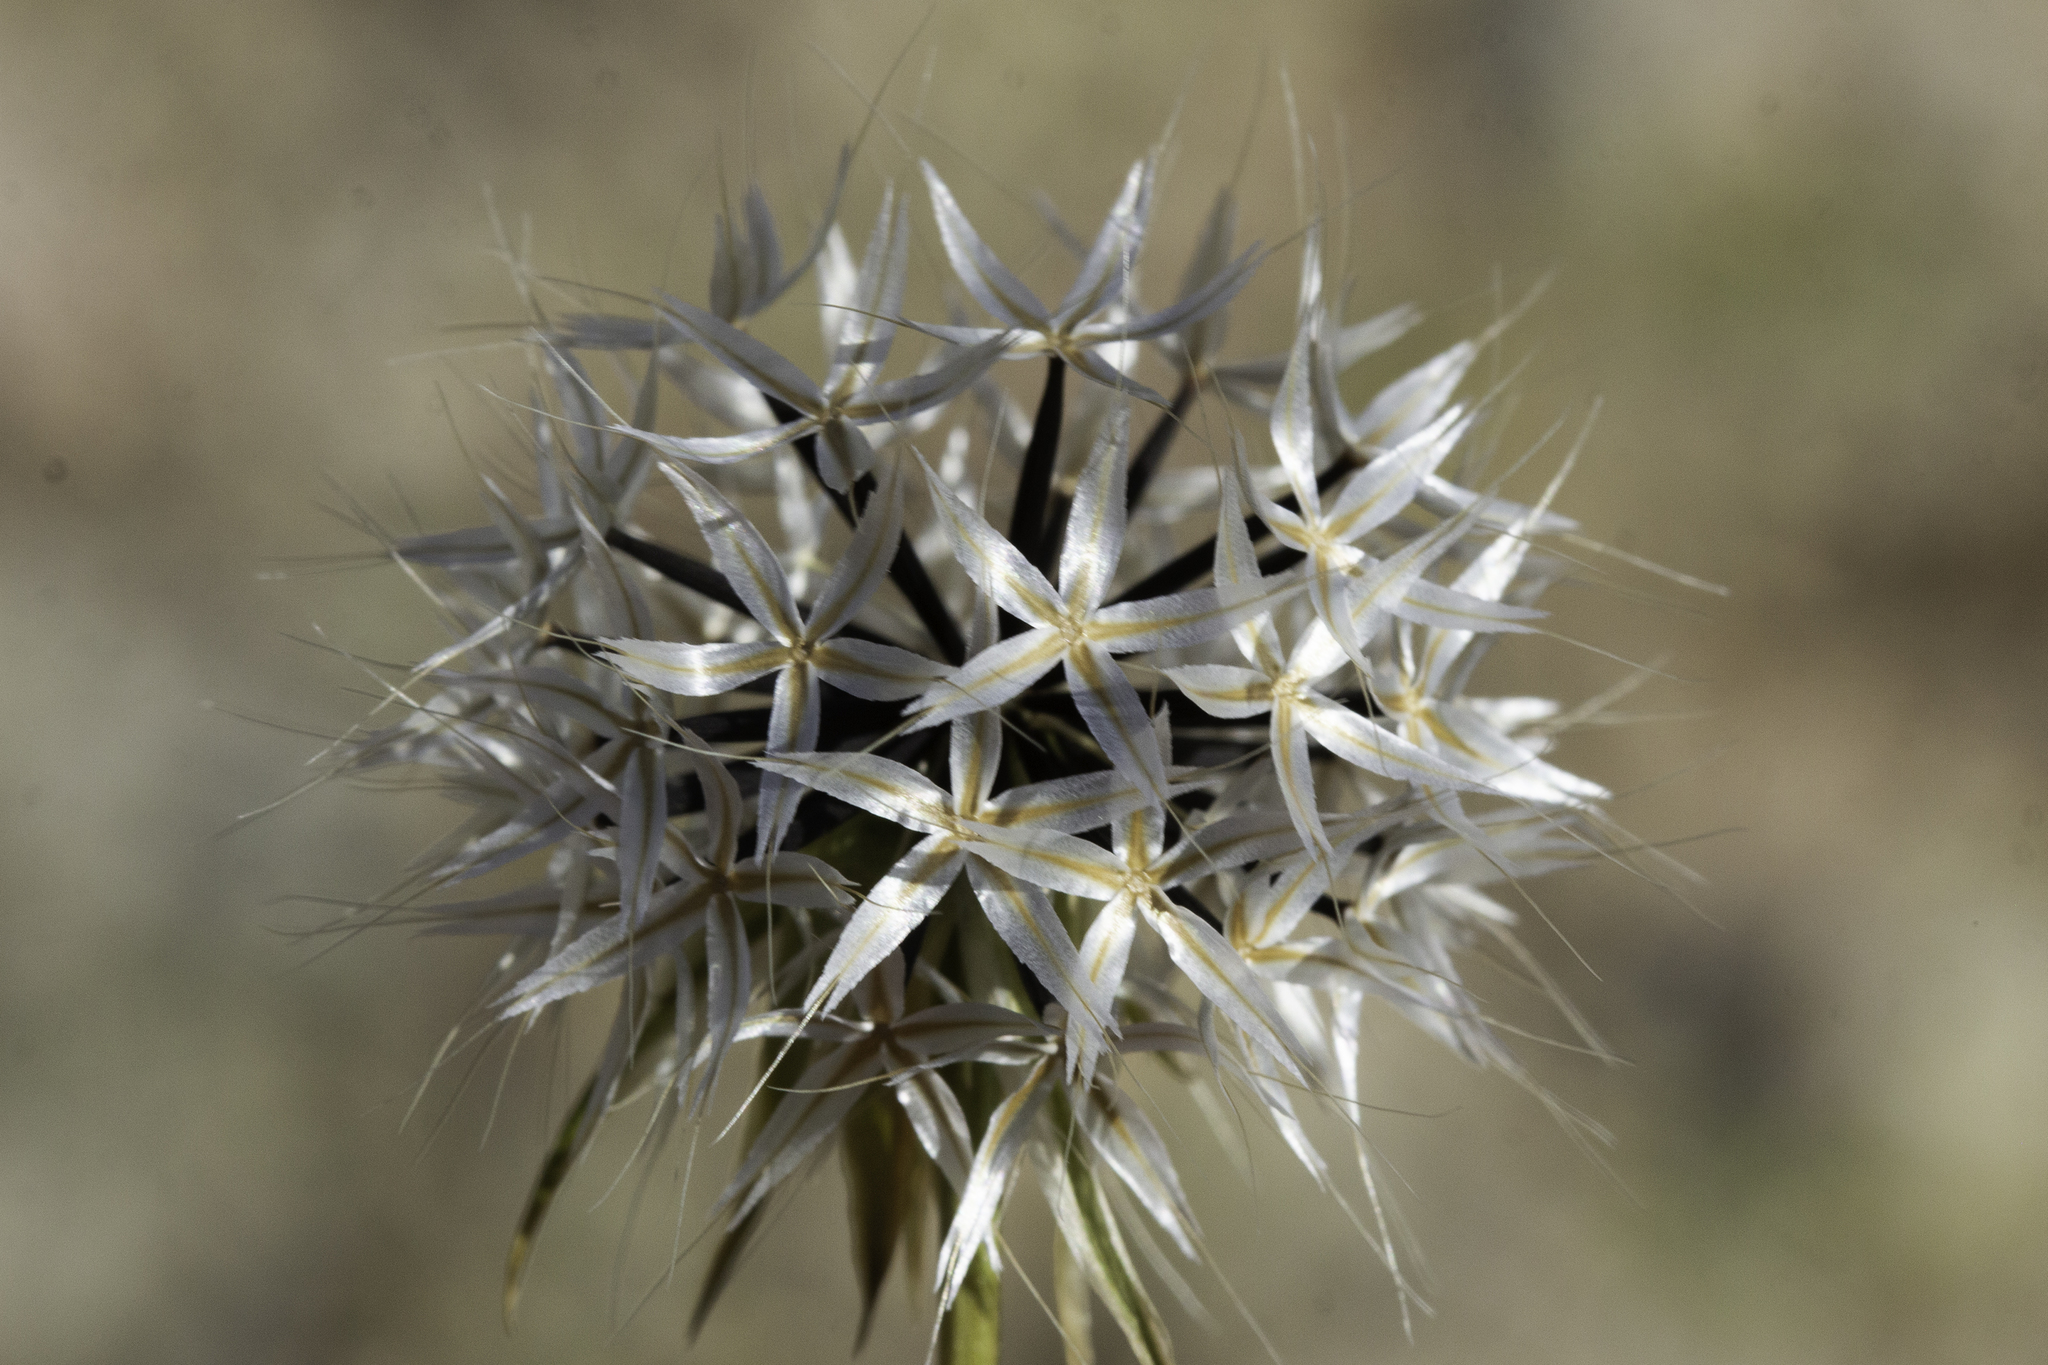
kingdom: Plantae
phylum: Tracheophyta
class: Magnoliopsida
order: Asterales
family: Asteraceae
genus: Microseris
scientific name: Microseris lindleyi
